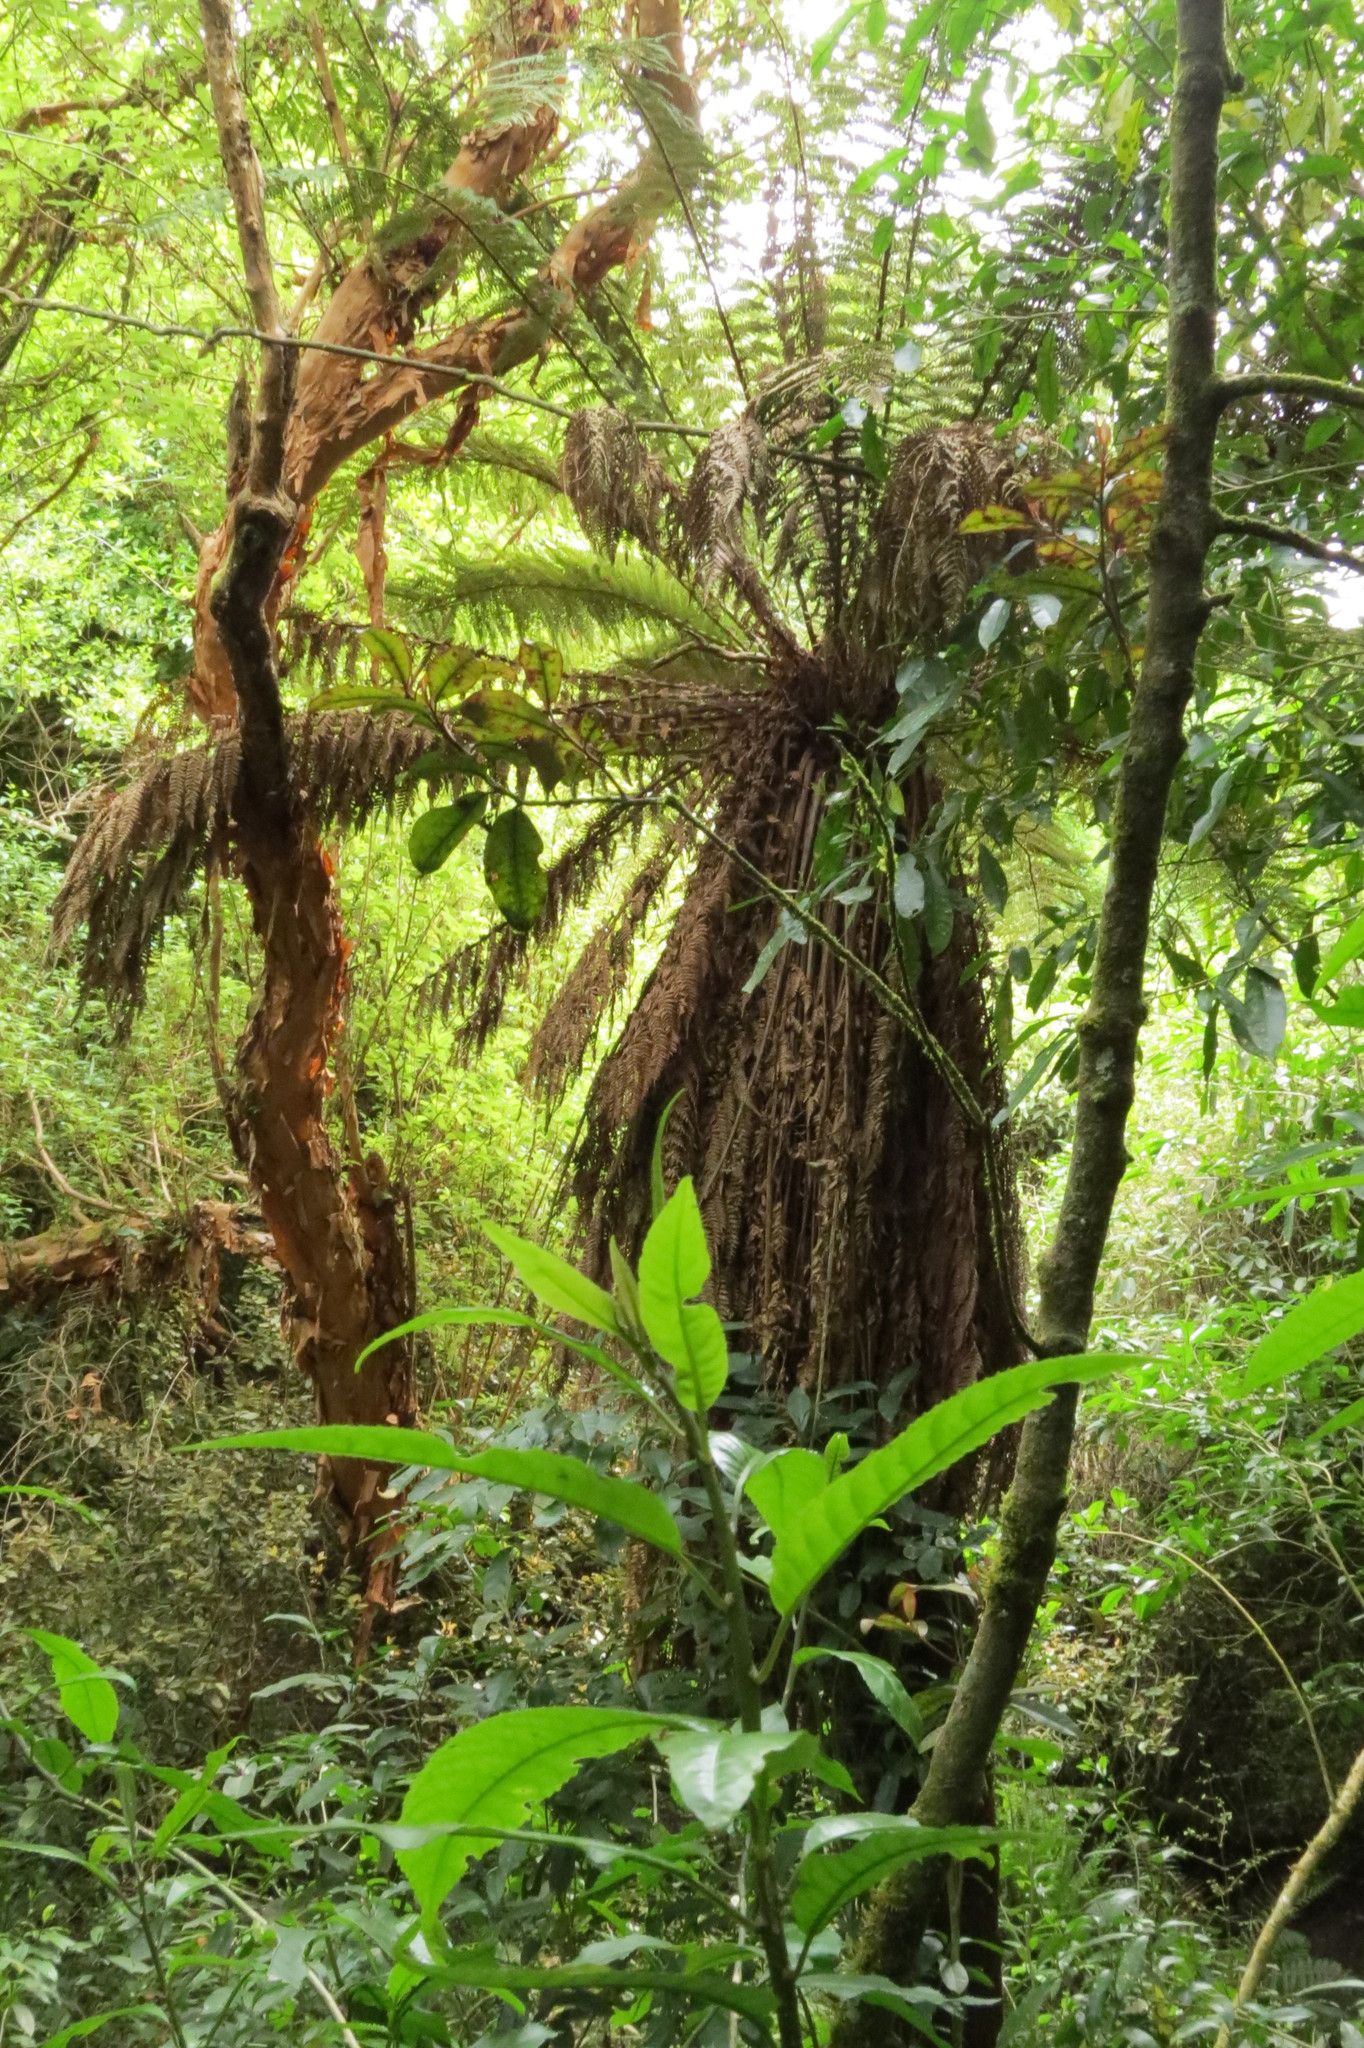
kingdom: Plantae
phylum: Tracheophyta
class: Polypodiopsida
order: Cyatheales
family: Dicksoniaceae
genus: Dicksonia
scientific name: Dicksonia fibrosa
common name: Golden tree fern
